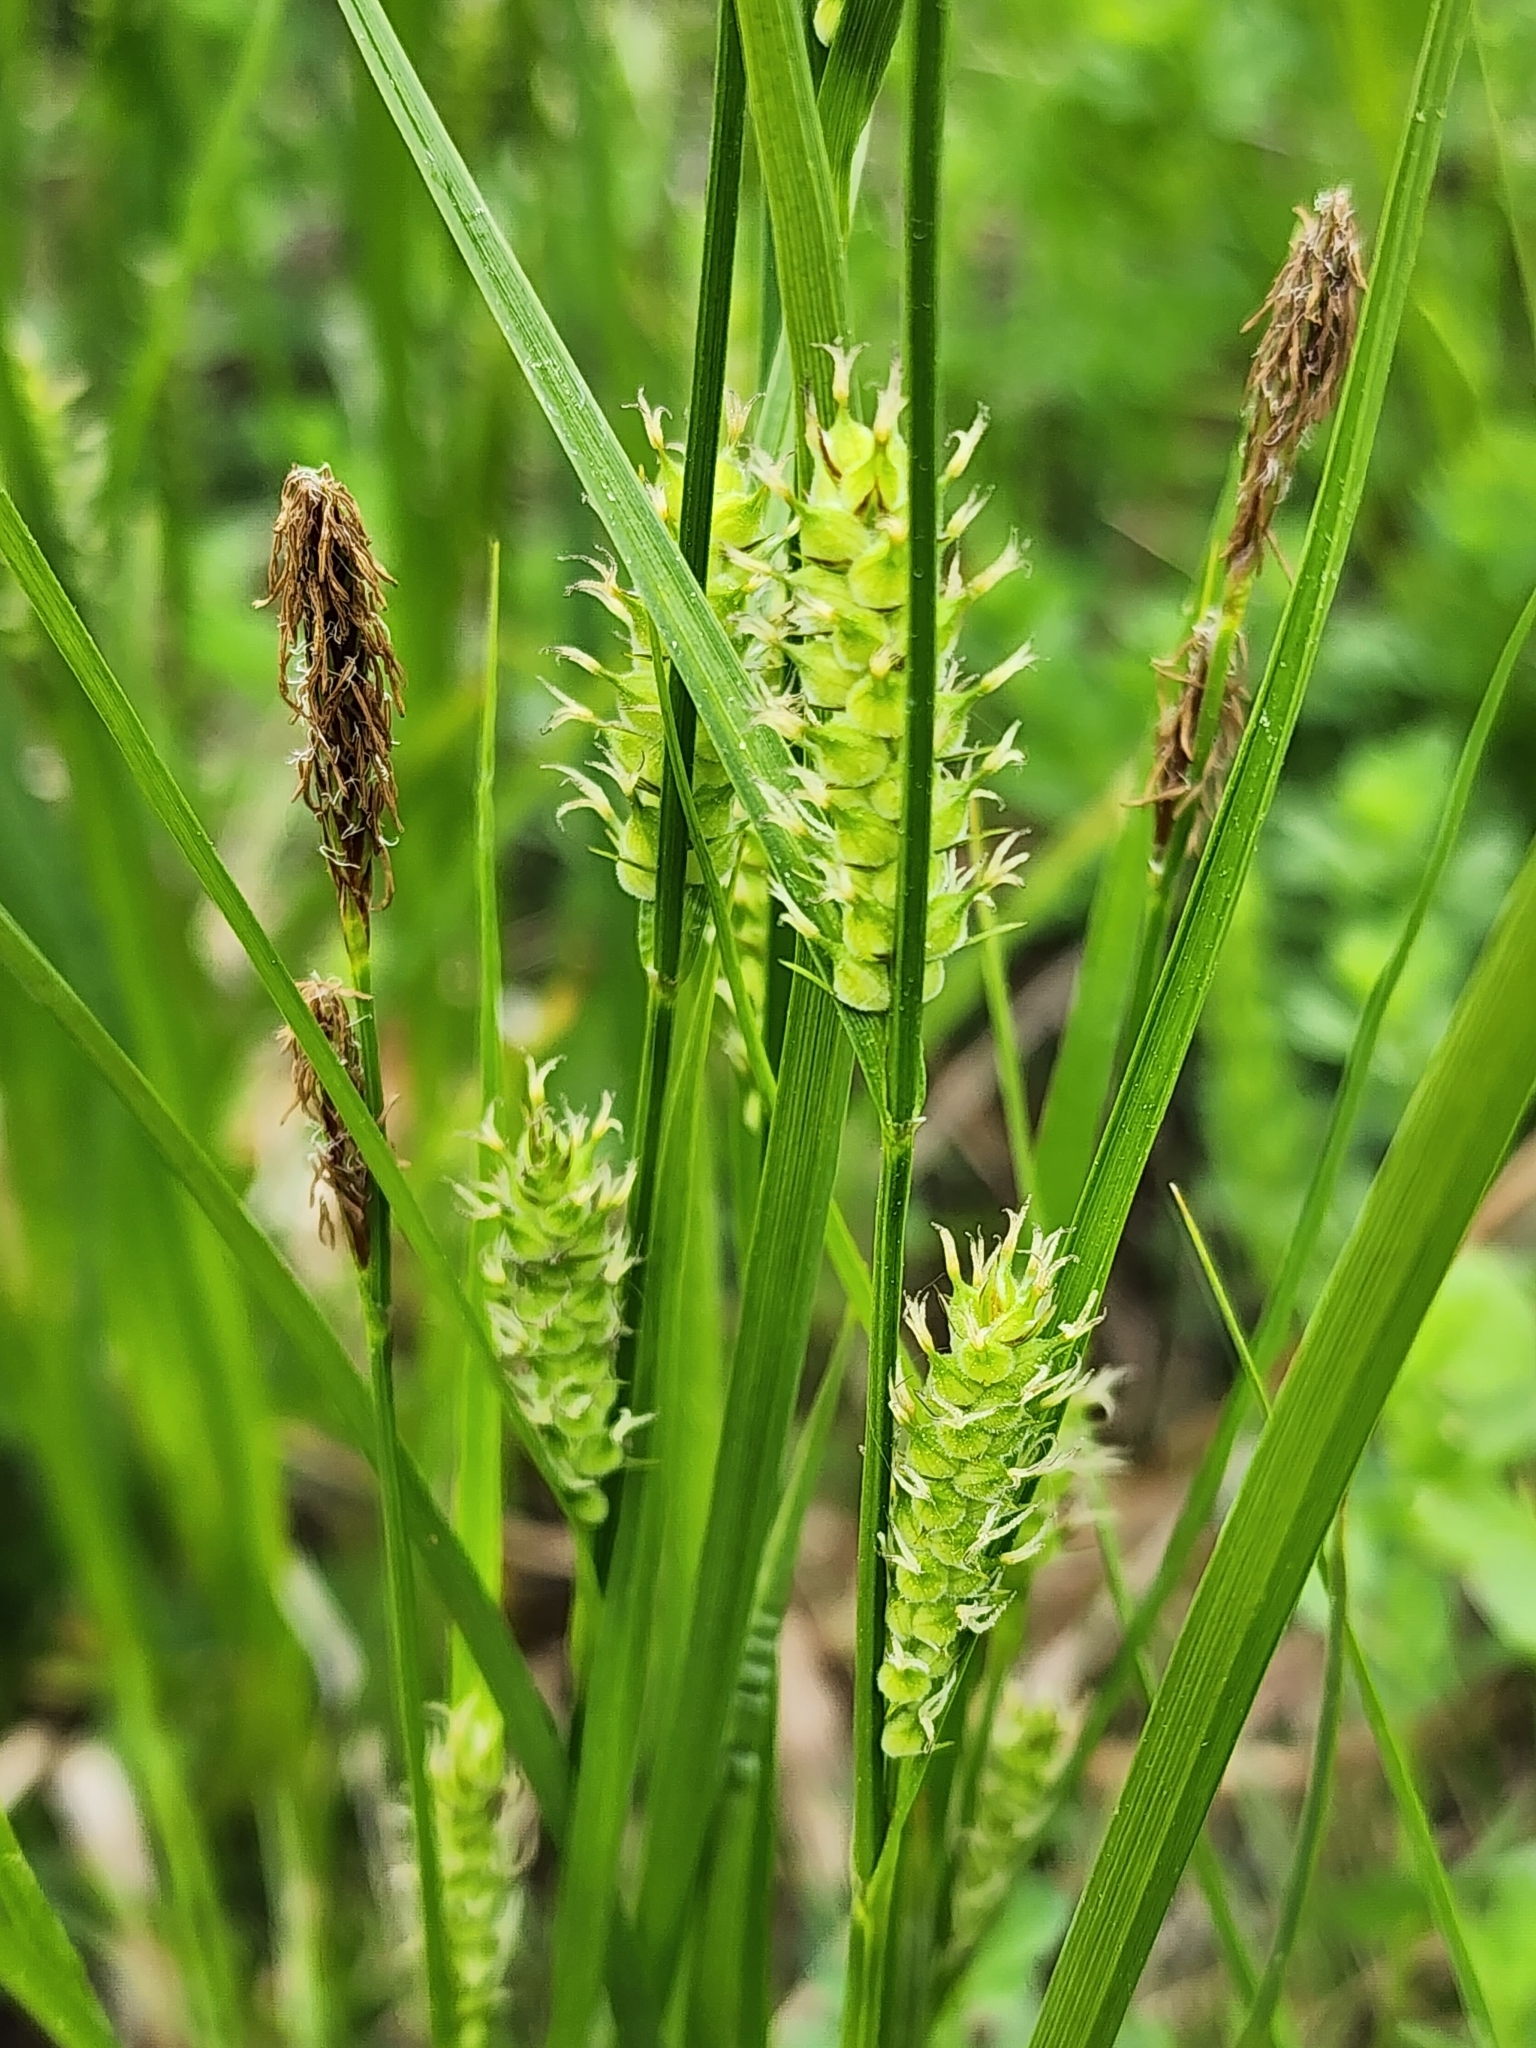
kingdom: Plantae
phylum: Tracheophyta
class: Liliopsida
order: Poales
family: Cyperaceae
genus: Carex
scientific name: Carex houghtoniana
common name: Houghton's sedge
